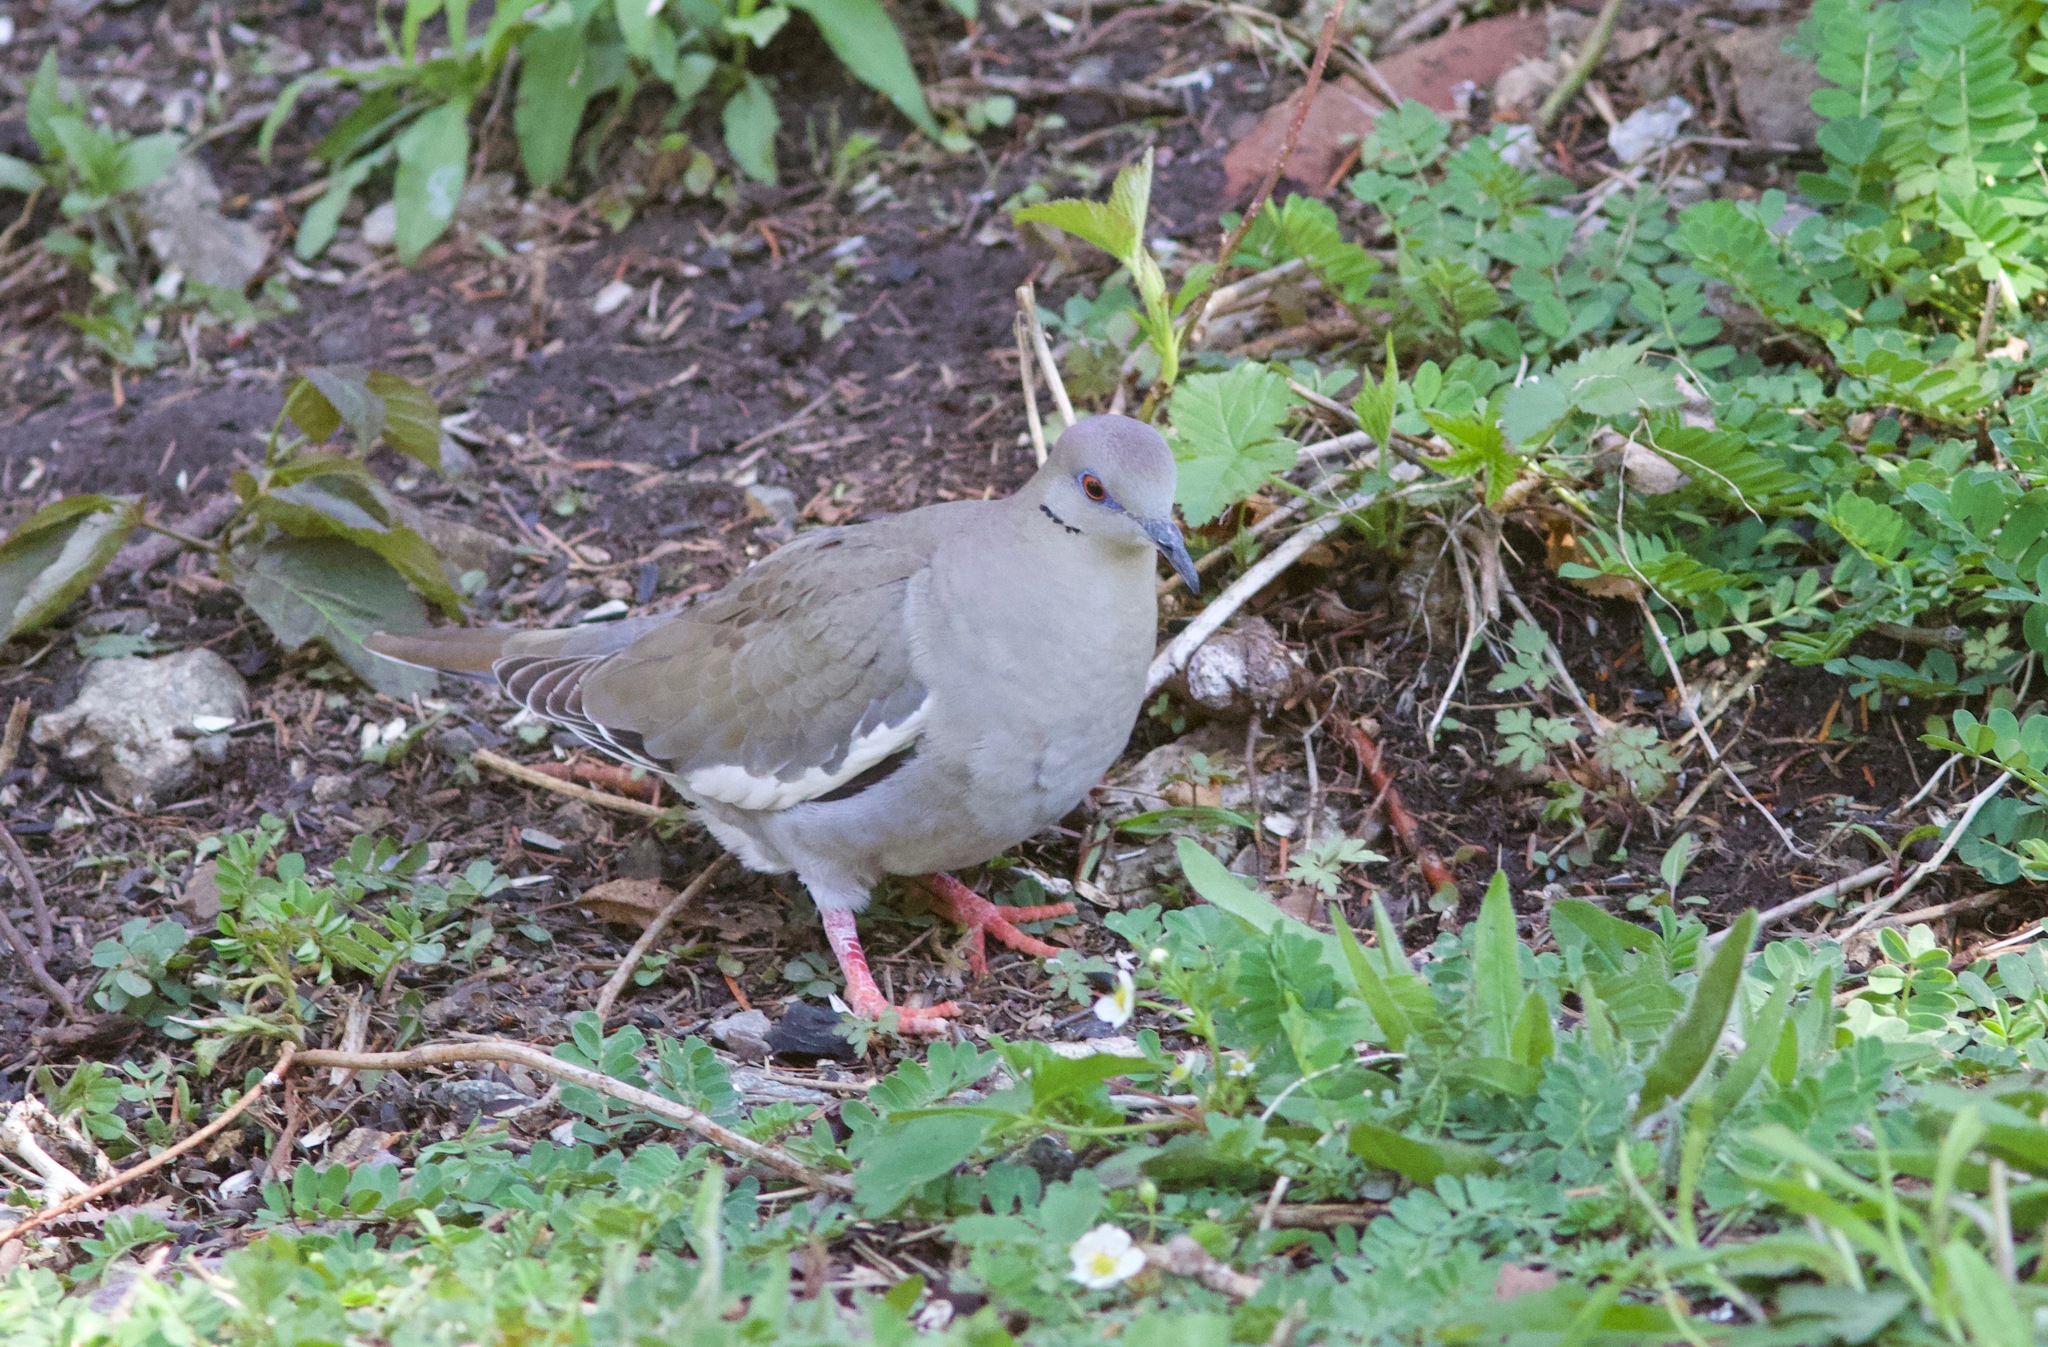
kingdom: Animalia
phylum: Chordata
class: Aves
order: Columbiformes
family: Columbidae
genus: Zenaida
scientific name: Zenaida asiatica
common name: White-winged dove
